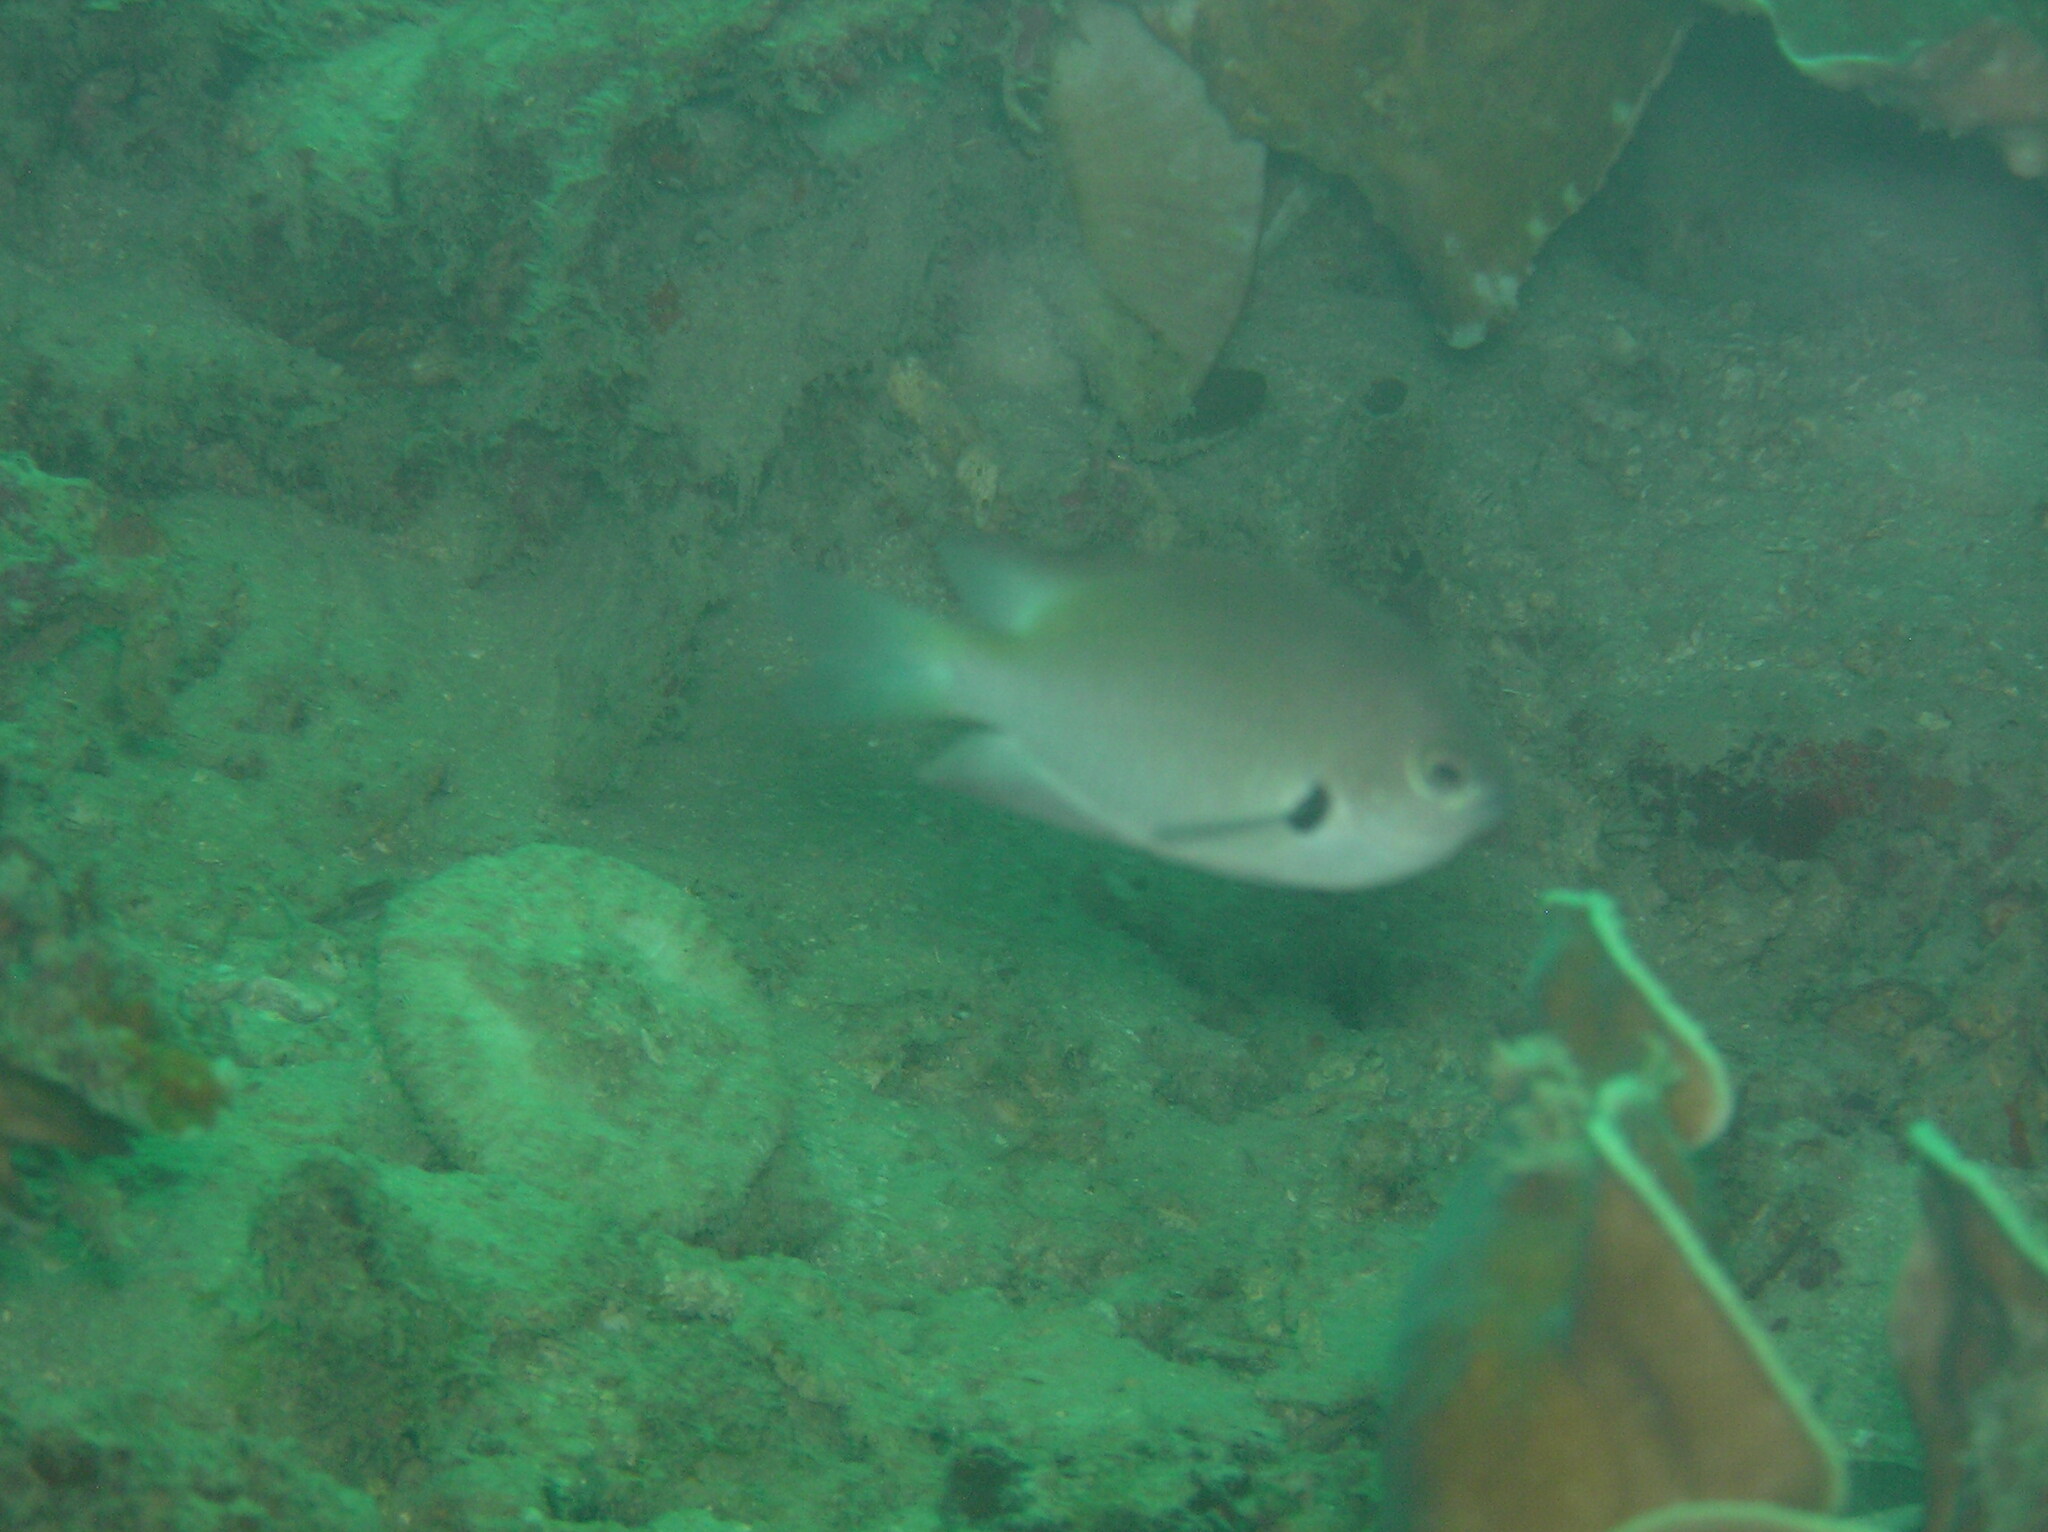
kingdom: Animalia
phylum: Chordata
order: Perciformes
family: Pomacentridae
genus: Pomacentrus
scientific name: Pomacentrus alexanderae
